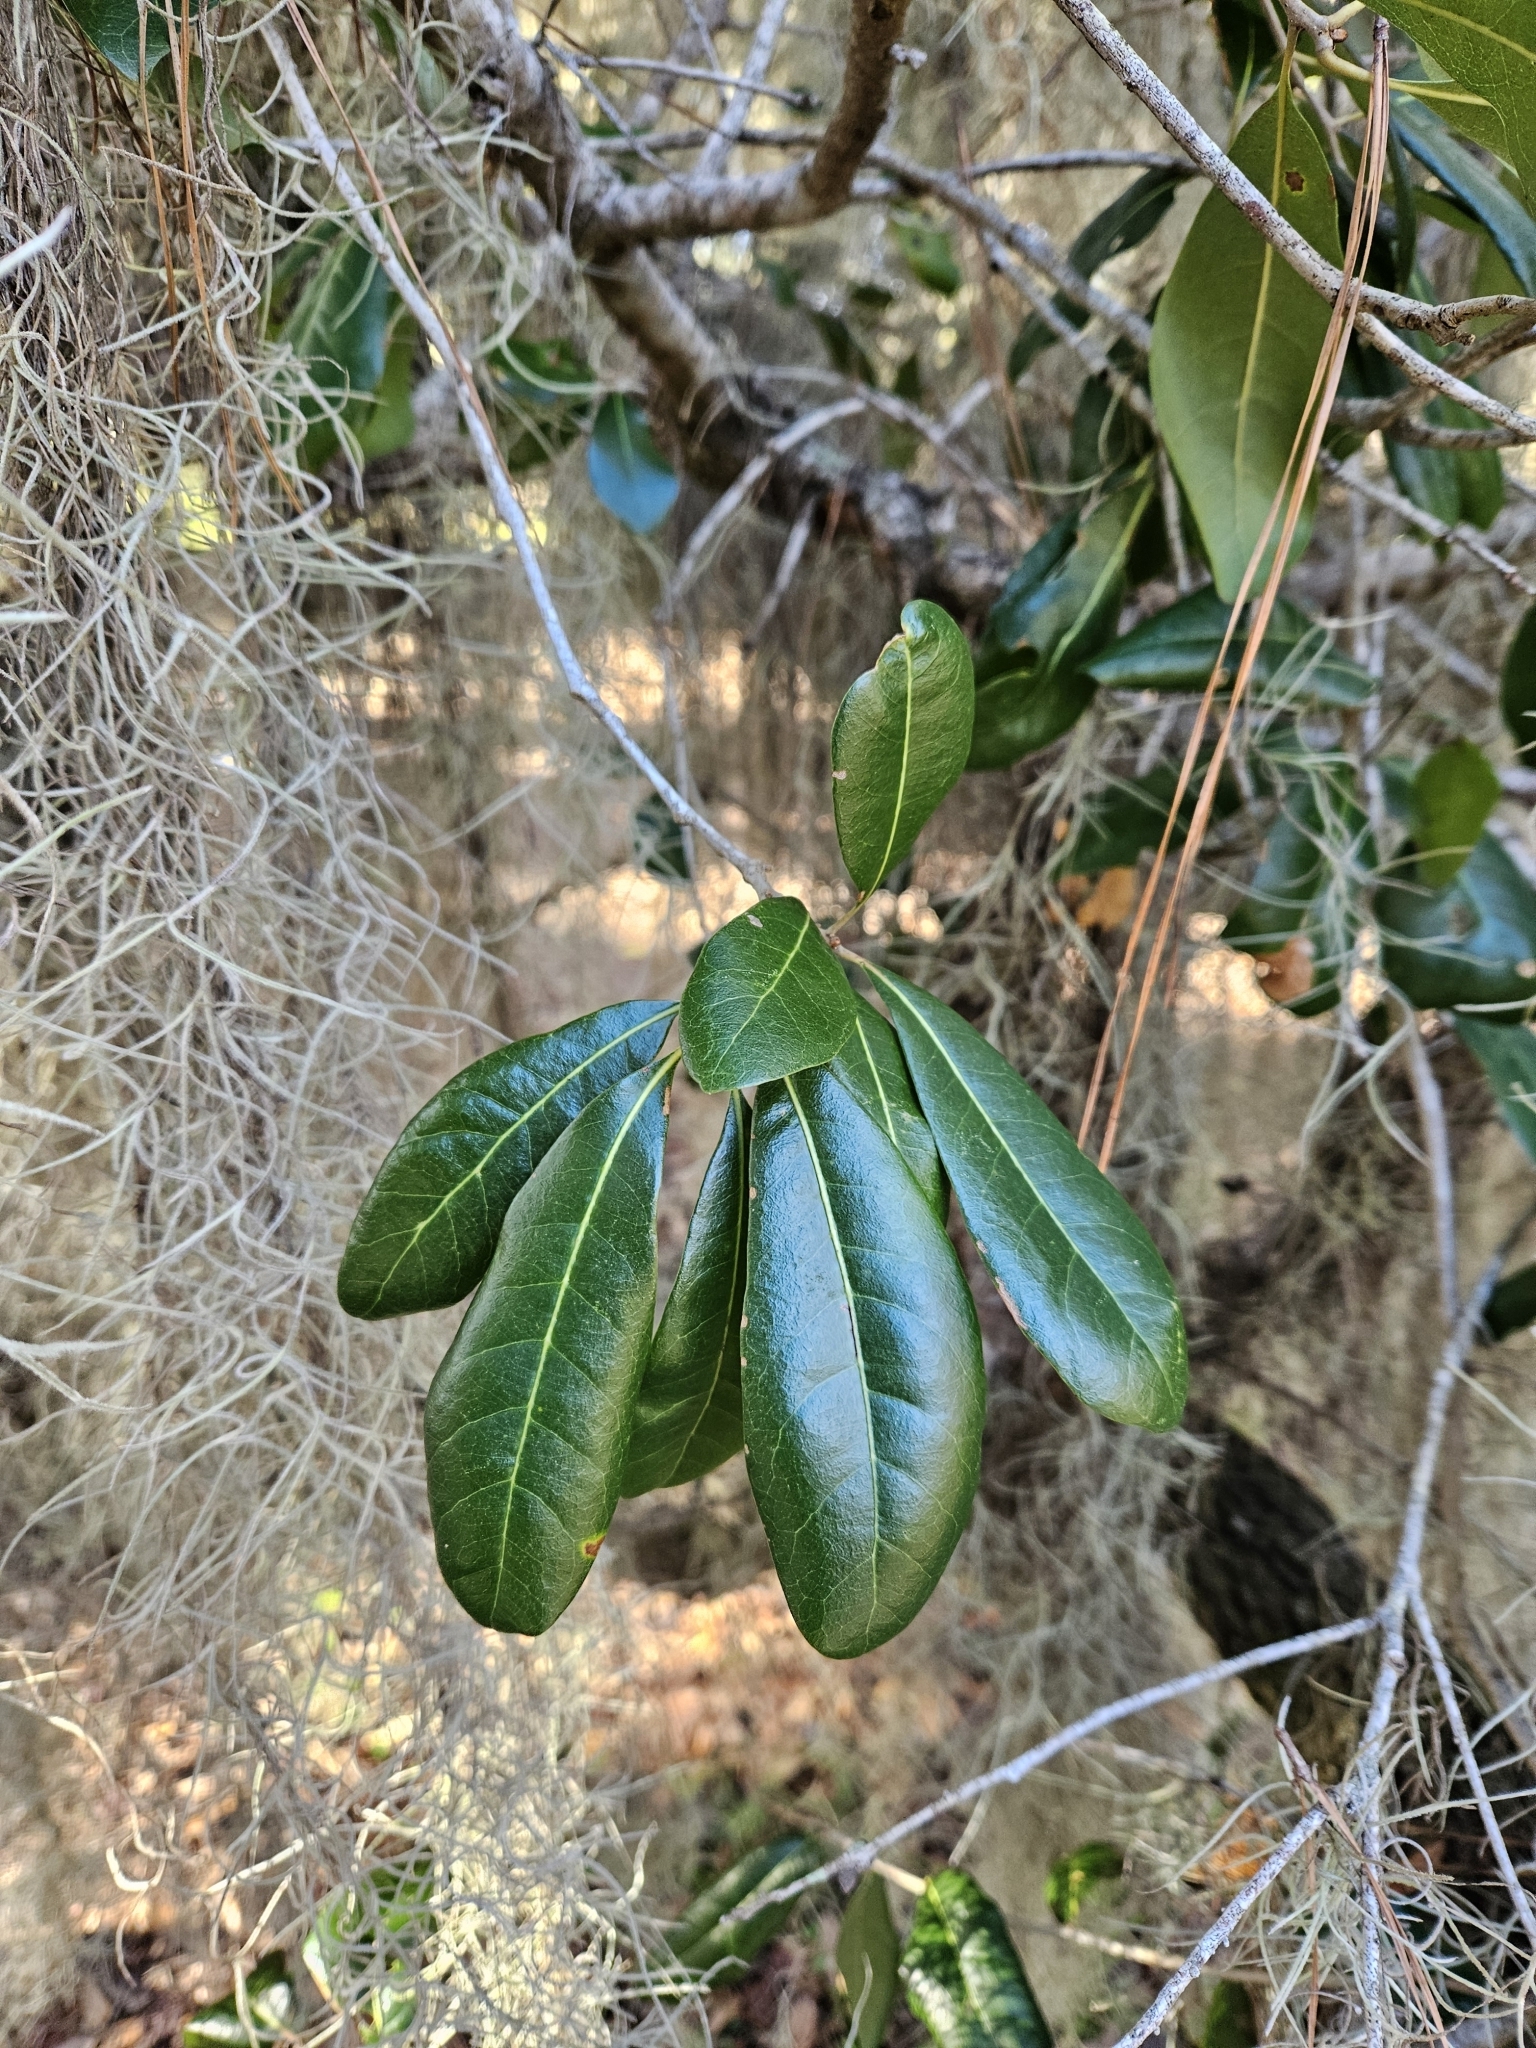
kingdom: Plantae
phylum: Tracheophyta
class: Magnoliopsida
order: Fagales
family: Fagaceae
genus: Quercus
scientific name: Quercus virginiana
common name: Southern live oak
